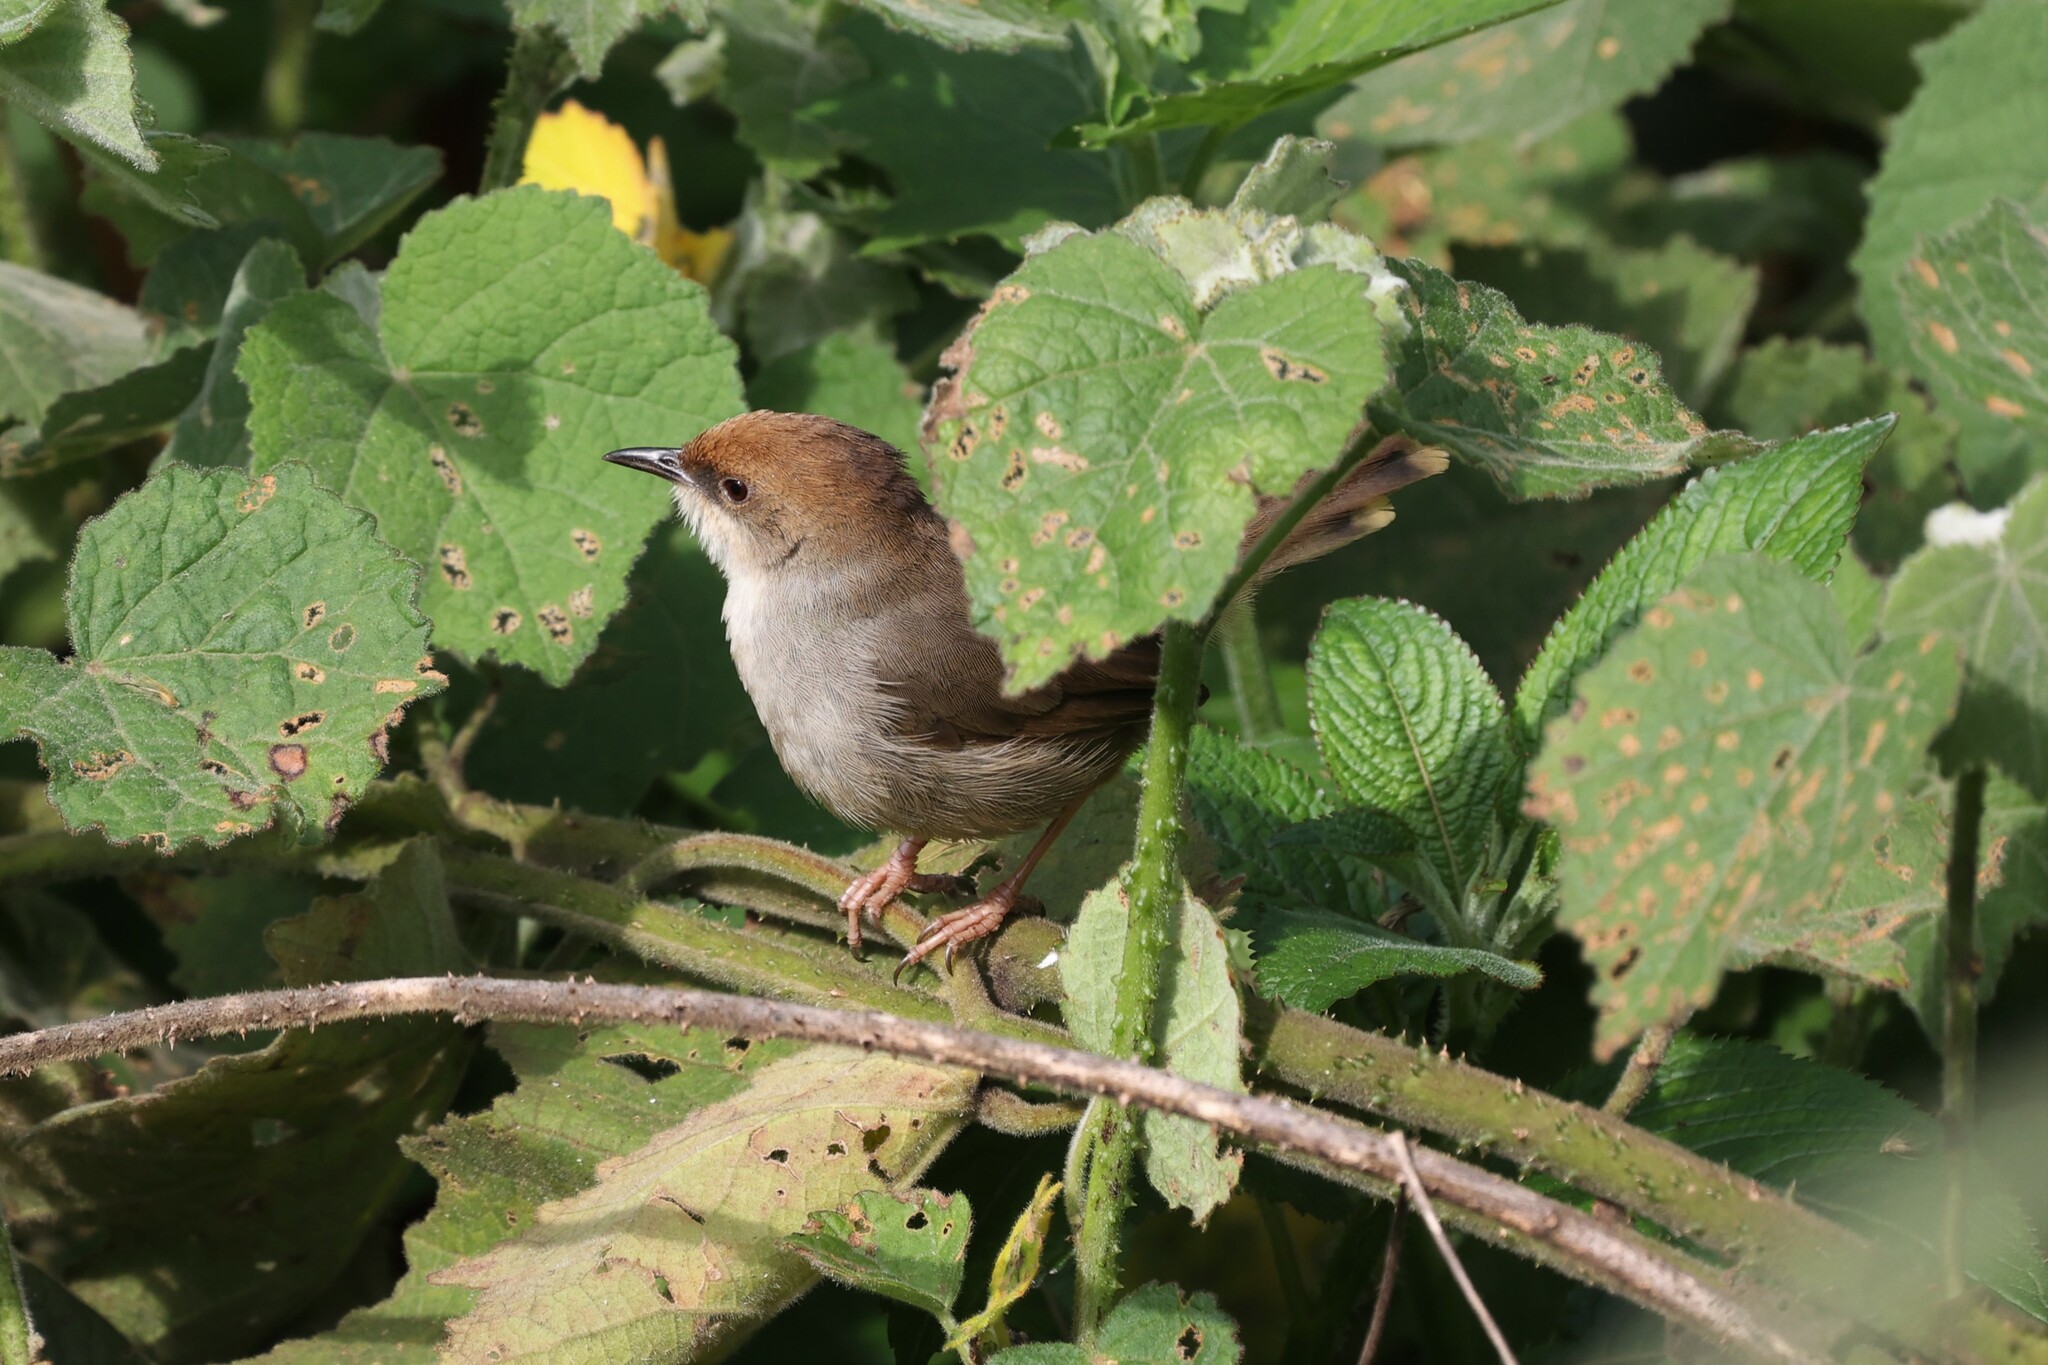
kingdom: Animalia
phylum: Chordata
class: Aves
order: Passeriformes
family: Cisticolidae
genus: Cisticola
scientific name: Cisticola chubbi
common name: Chubb's cisticola
